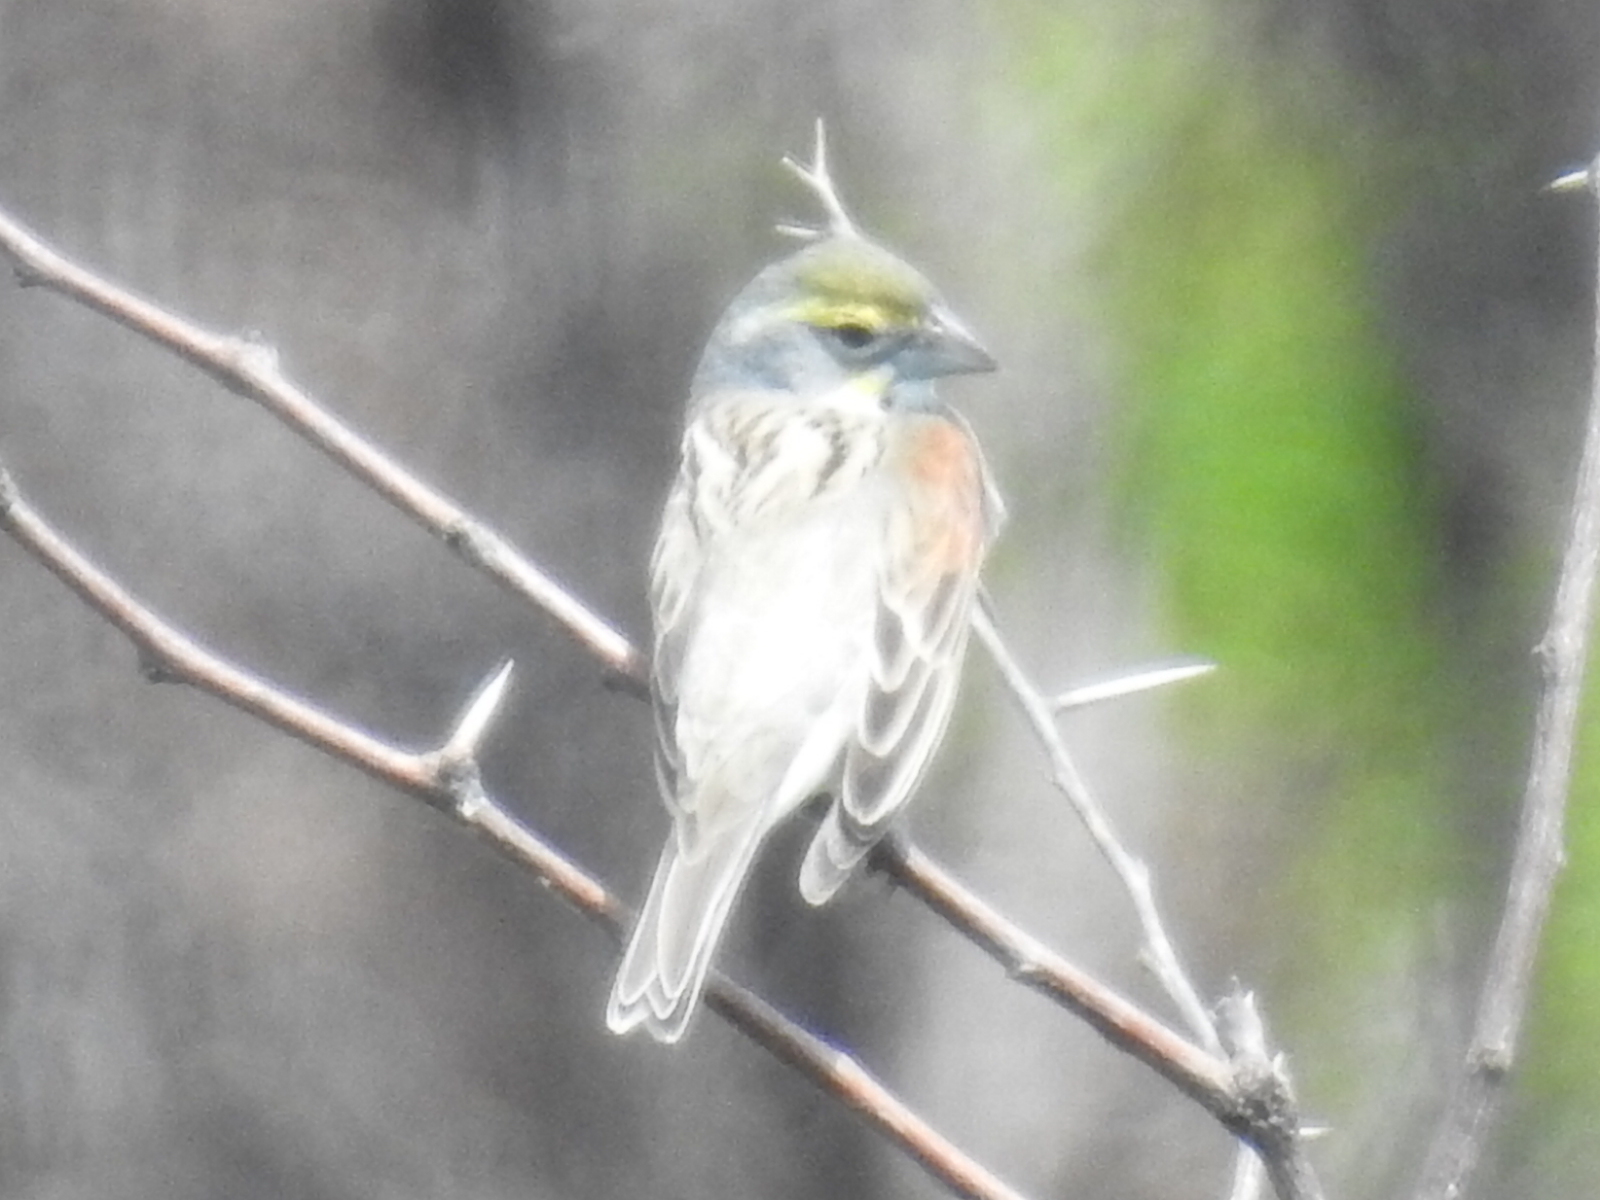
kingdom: Animalia
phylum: Chordata
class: Aves
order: Passeriformes
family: Cardinalidae
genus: Spiza
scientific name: Spiza americana
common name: Dickcissel
